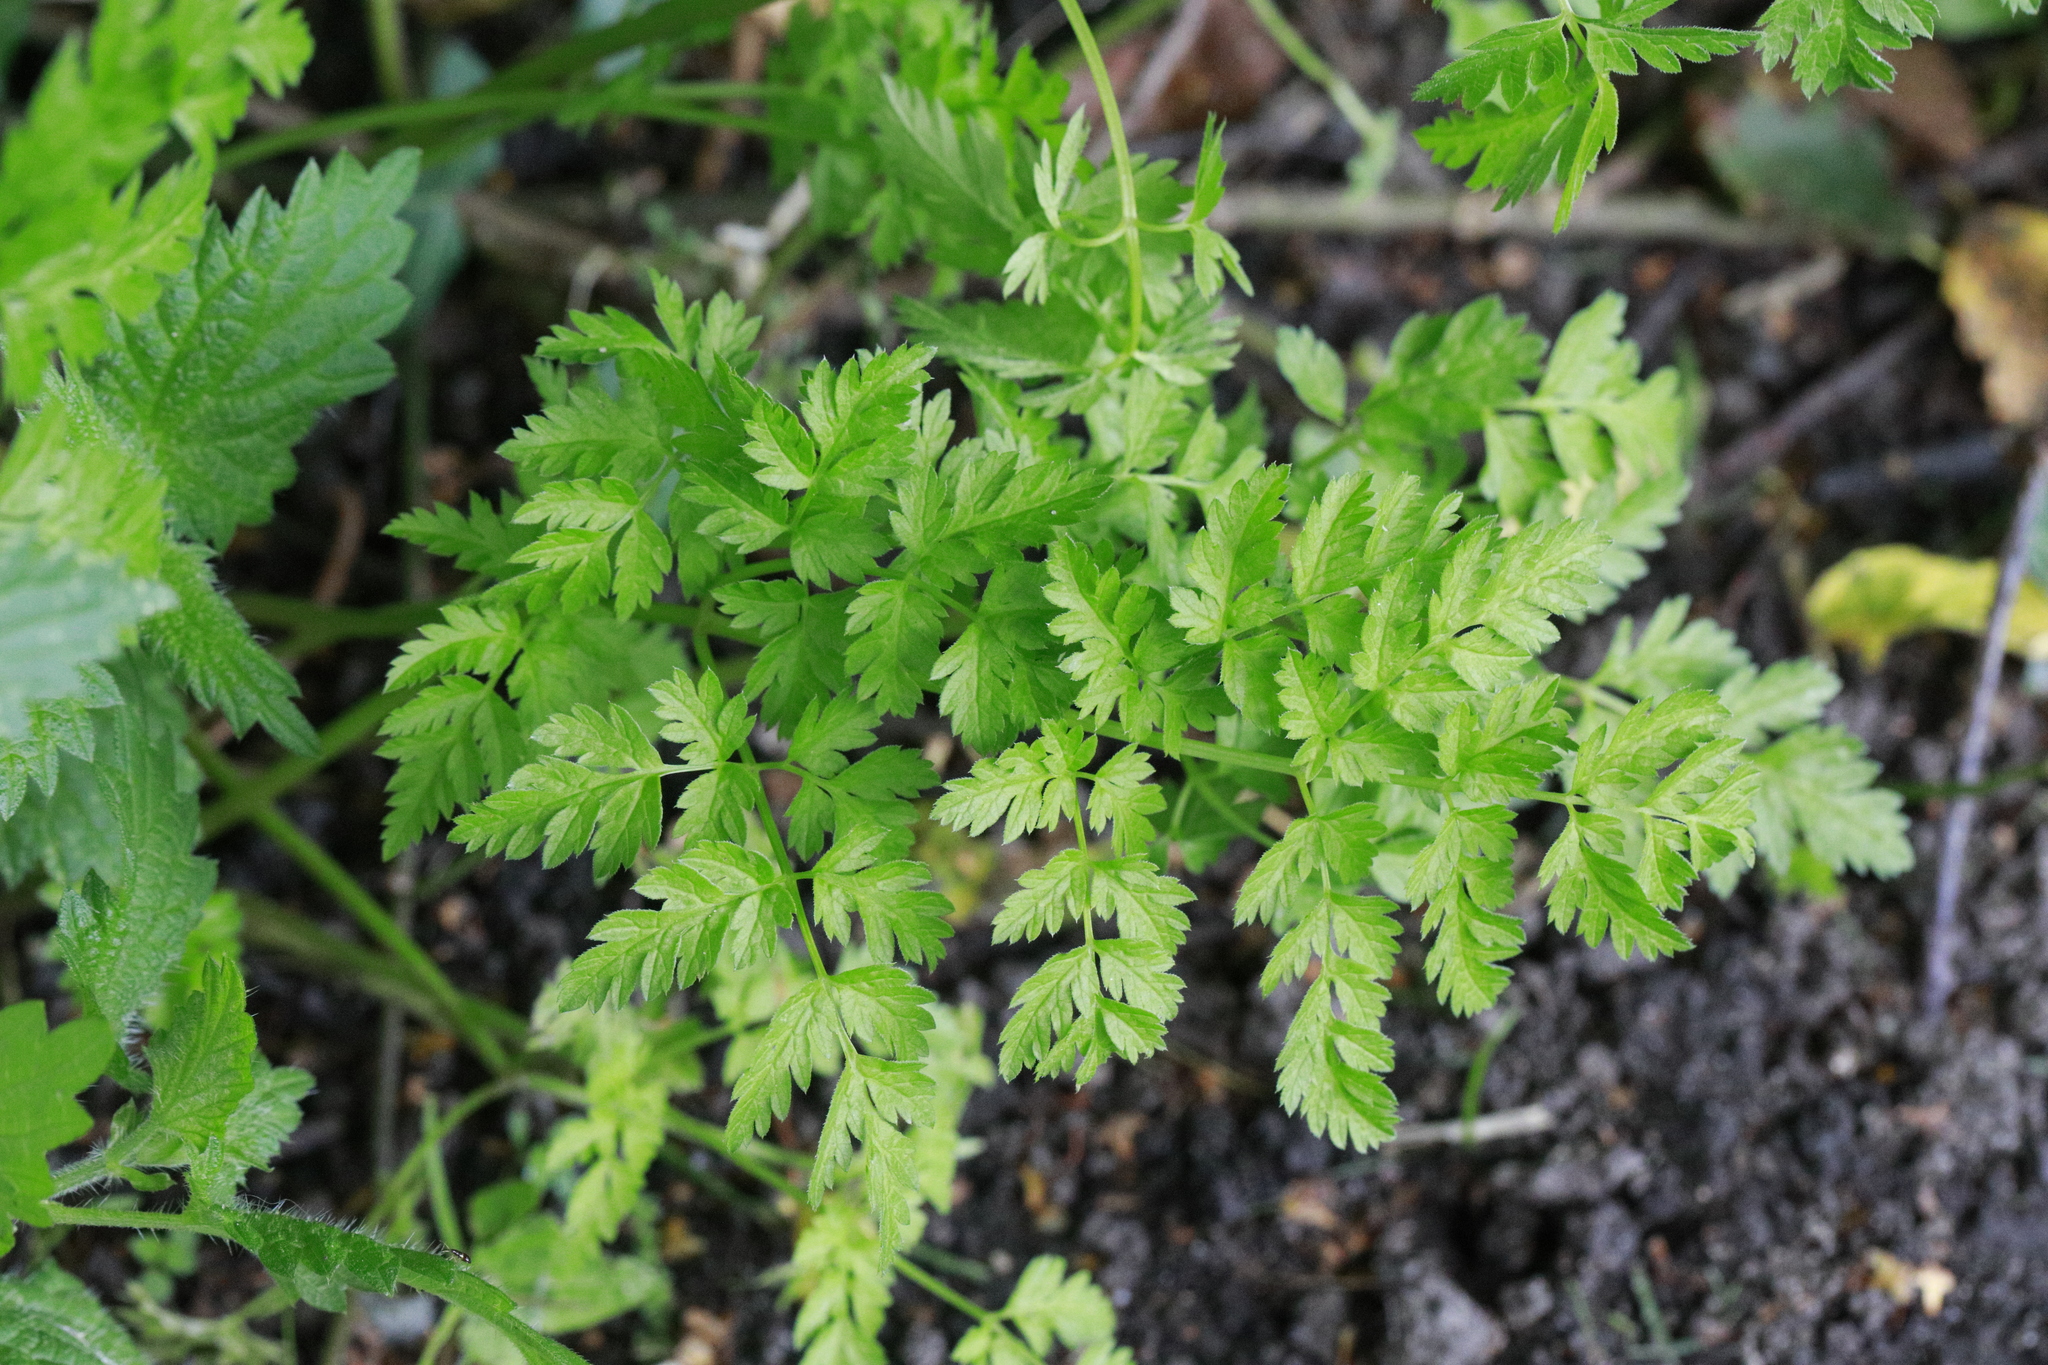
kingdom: Plantae
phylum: Tracheophyta
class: Magnoliopsida
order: Apiales
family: Apiaceae
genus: Anthriscus
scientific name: Anthriscus sylvestris
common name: Cow parsley
